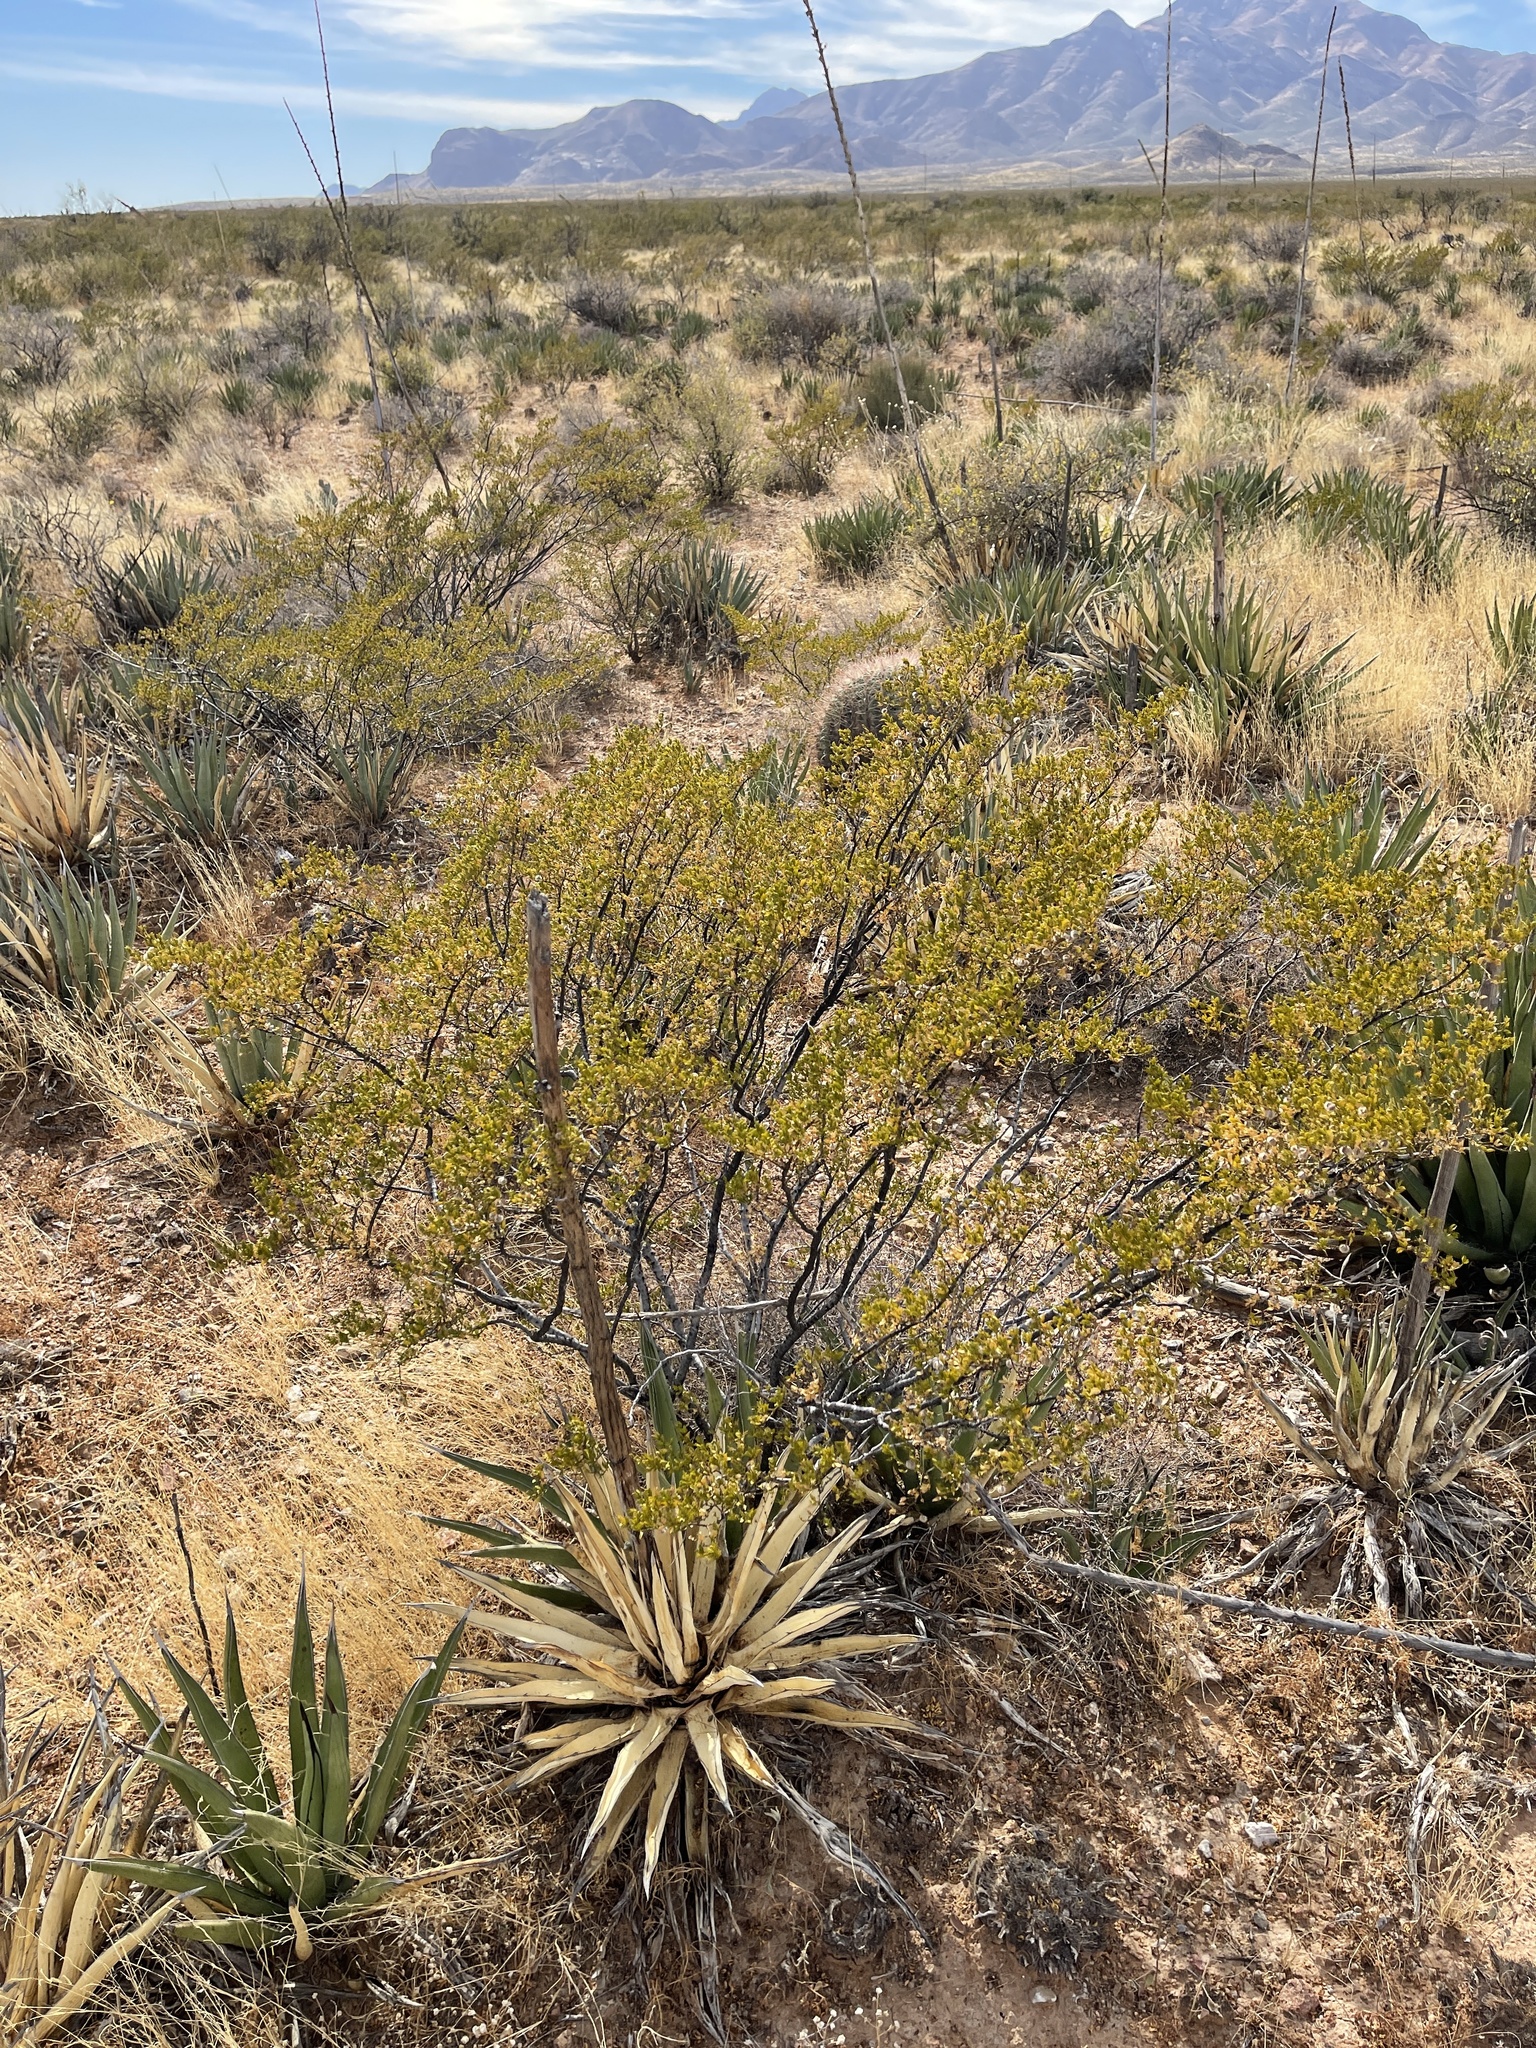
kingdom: Plantae
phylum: Tracheophyta
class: Magnoliopsida
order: Zygophyllales
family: Zygophyllaceae
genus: Larrea
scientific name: Larrea tridentata
